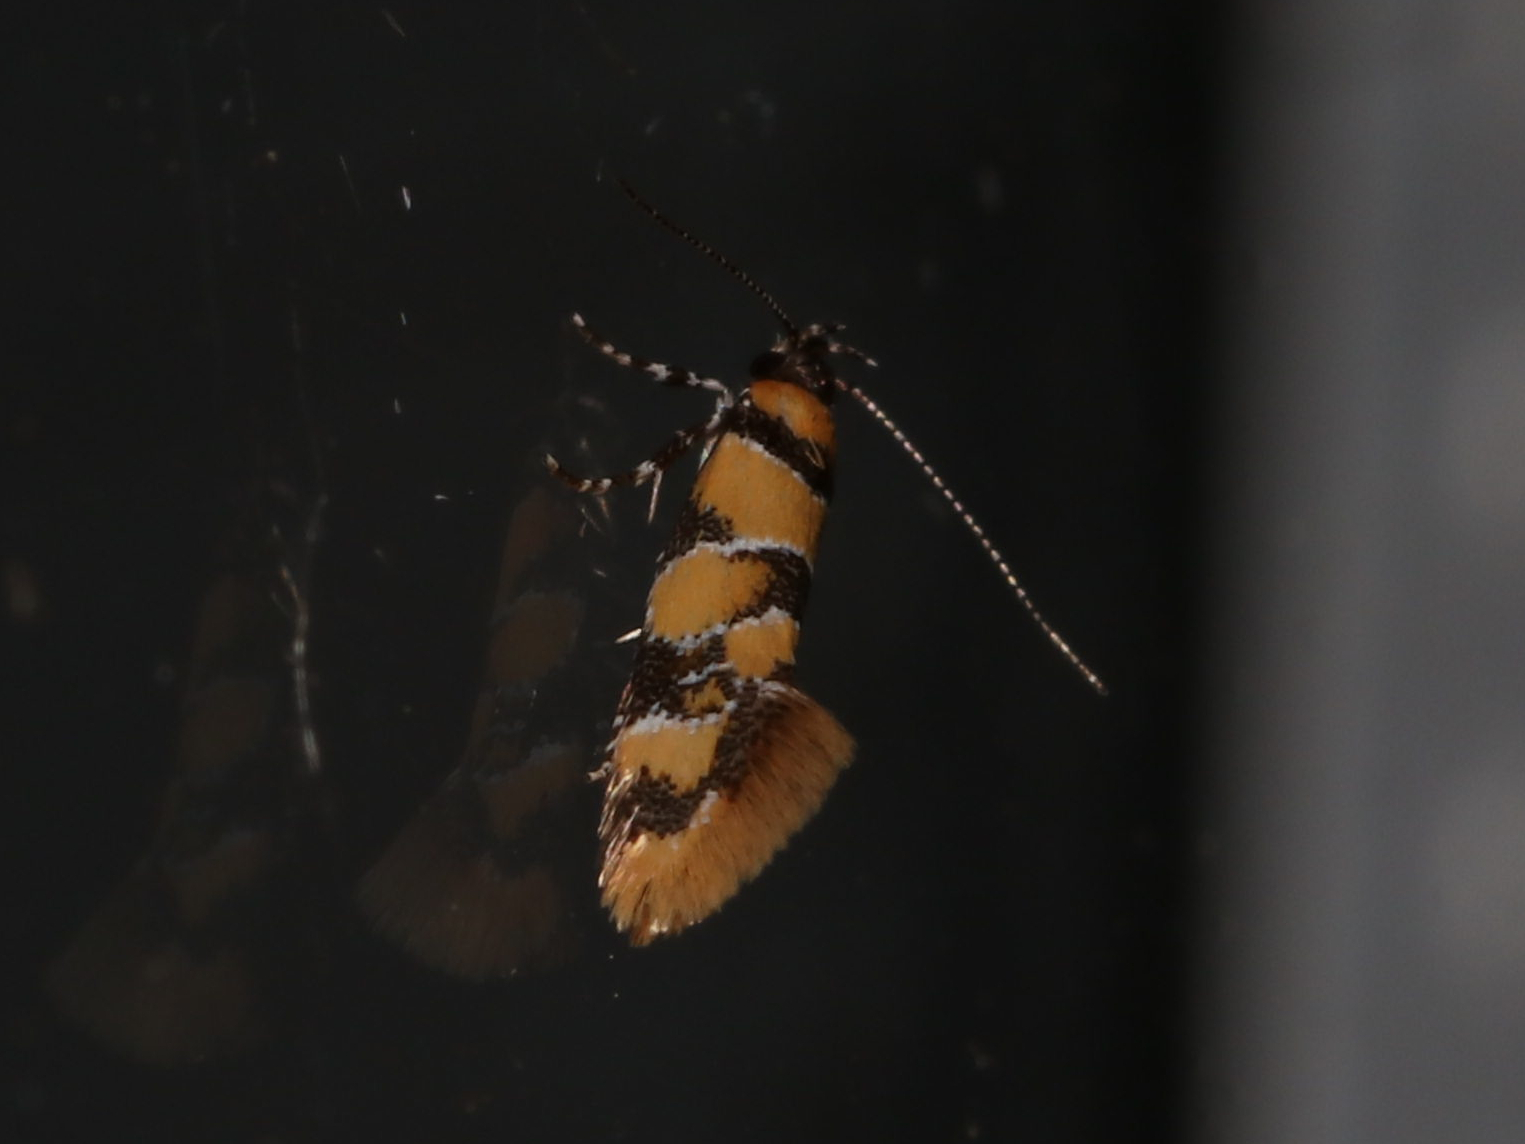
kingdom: Animalia
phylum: Arthropoda
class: Insecta
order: Lepidoptera
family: Oecophoridae
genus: Decantha
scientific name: Decantha borkhausenii
